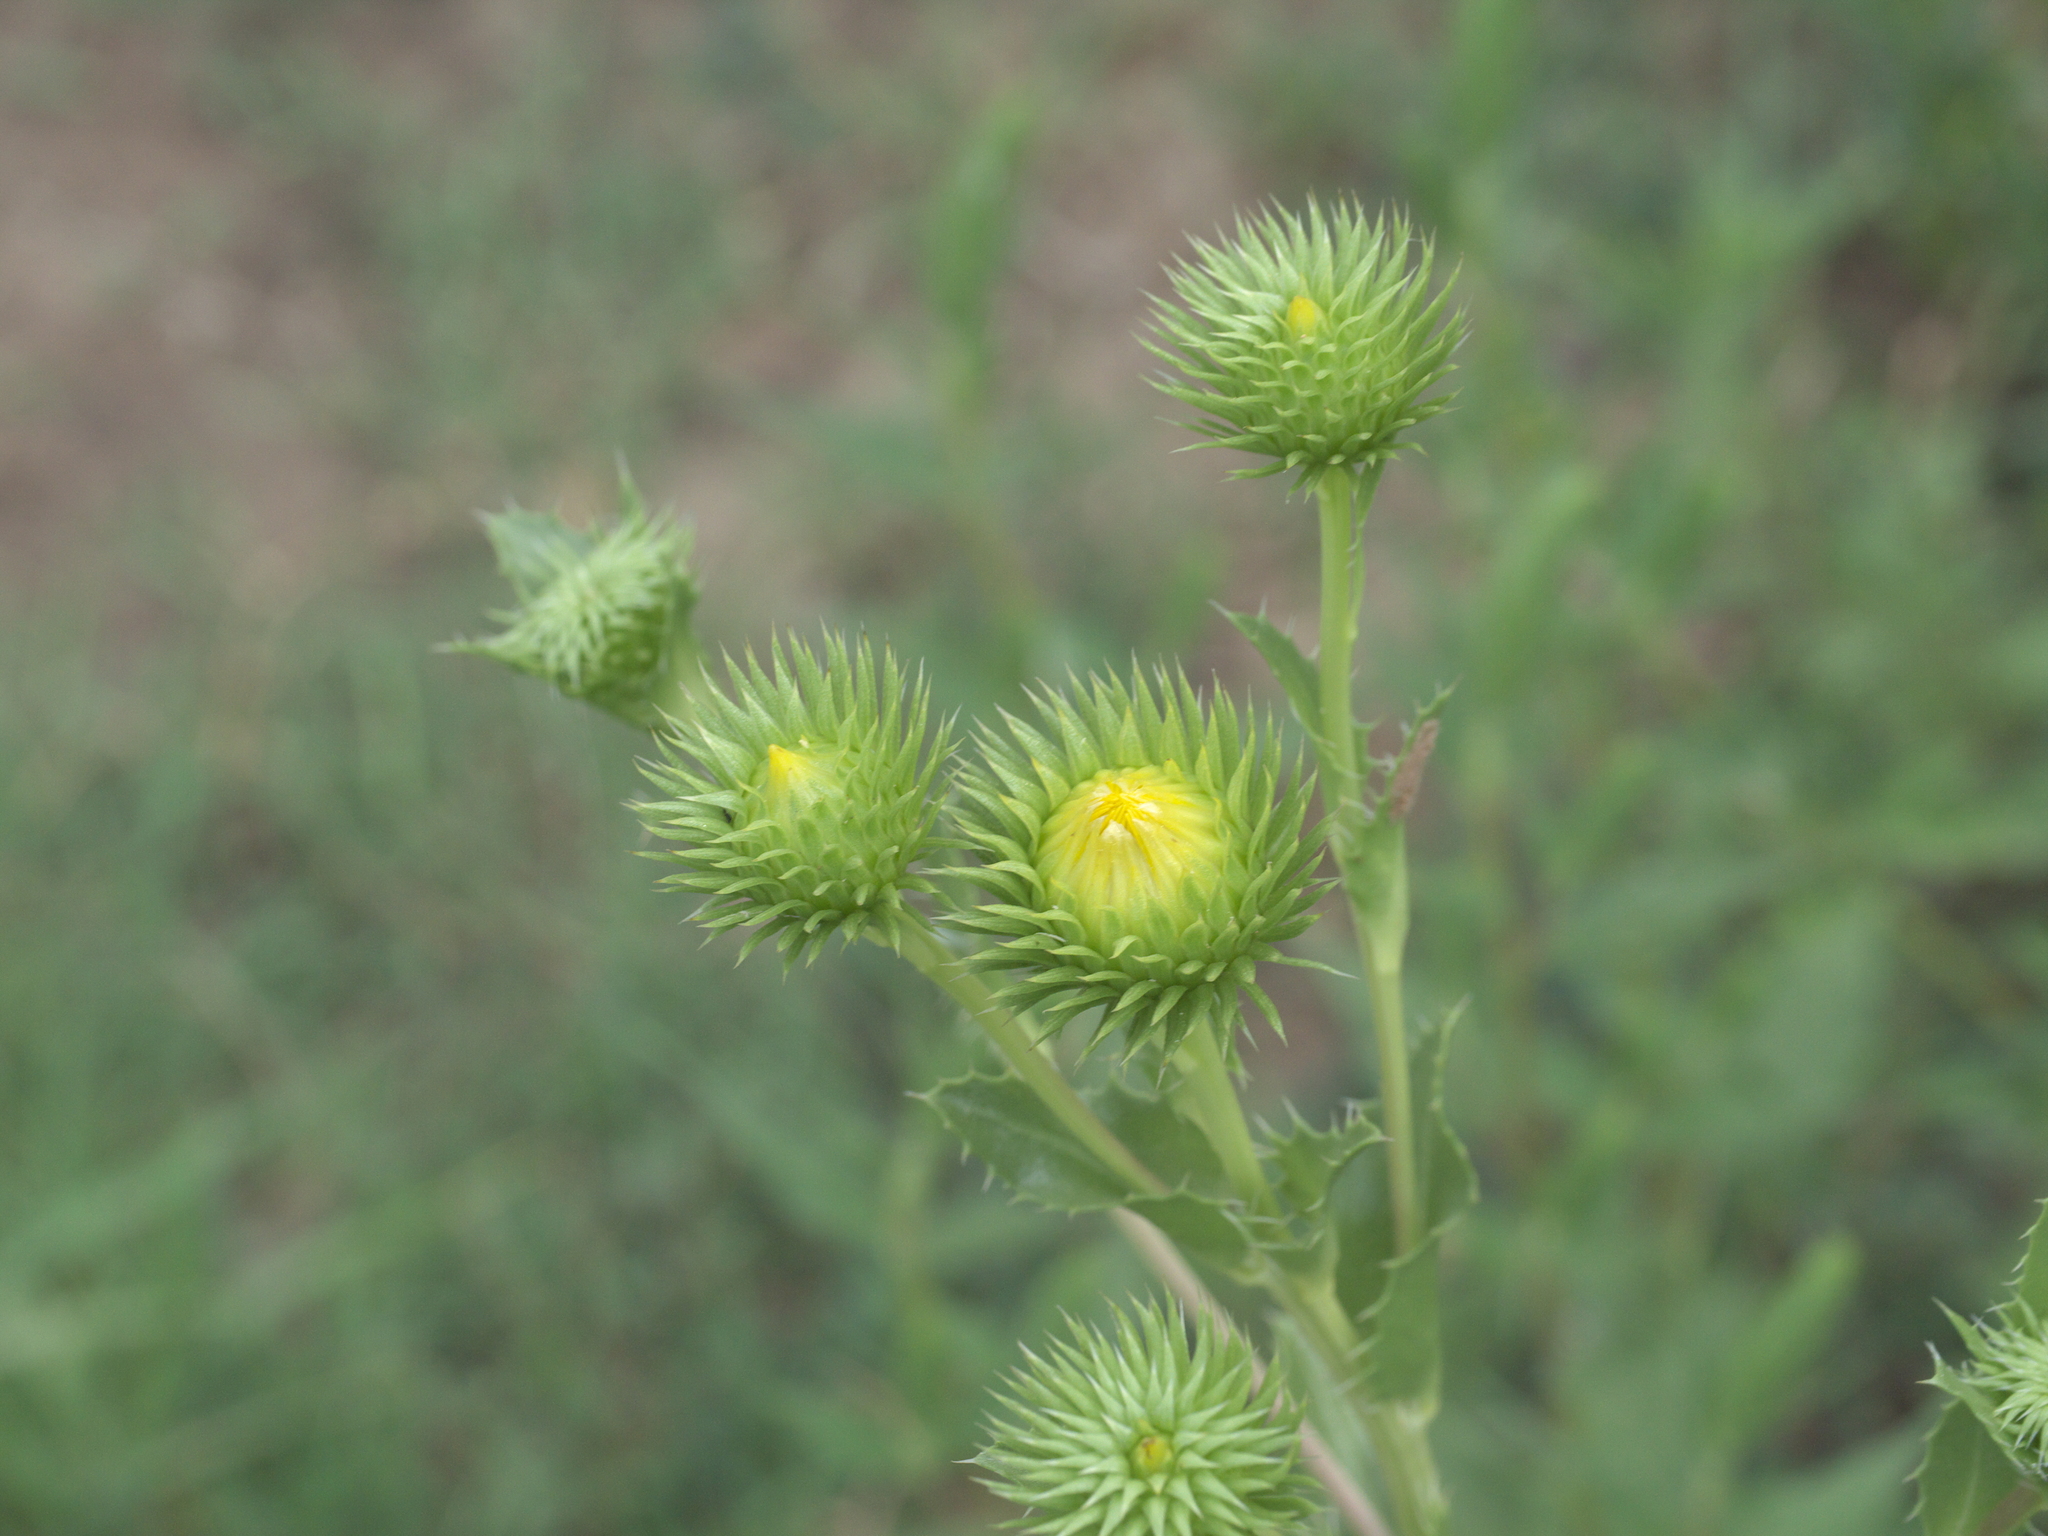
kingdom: Plantae
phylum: Tracheophyta
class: Magnoliopsida
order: Asterales
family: Asteraceae
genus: Grindelia
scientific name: Grindelia ciliata
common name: Goldenweed
